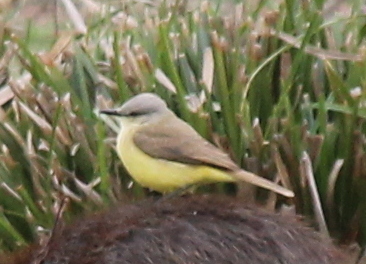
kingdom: Animalia
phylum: Chordata
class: Aves
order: Passeriformes
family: Tyrannidae
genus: Machetornis
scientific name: Machetornis rixosa
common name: Cattle tyrant
